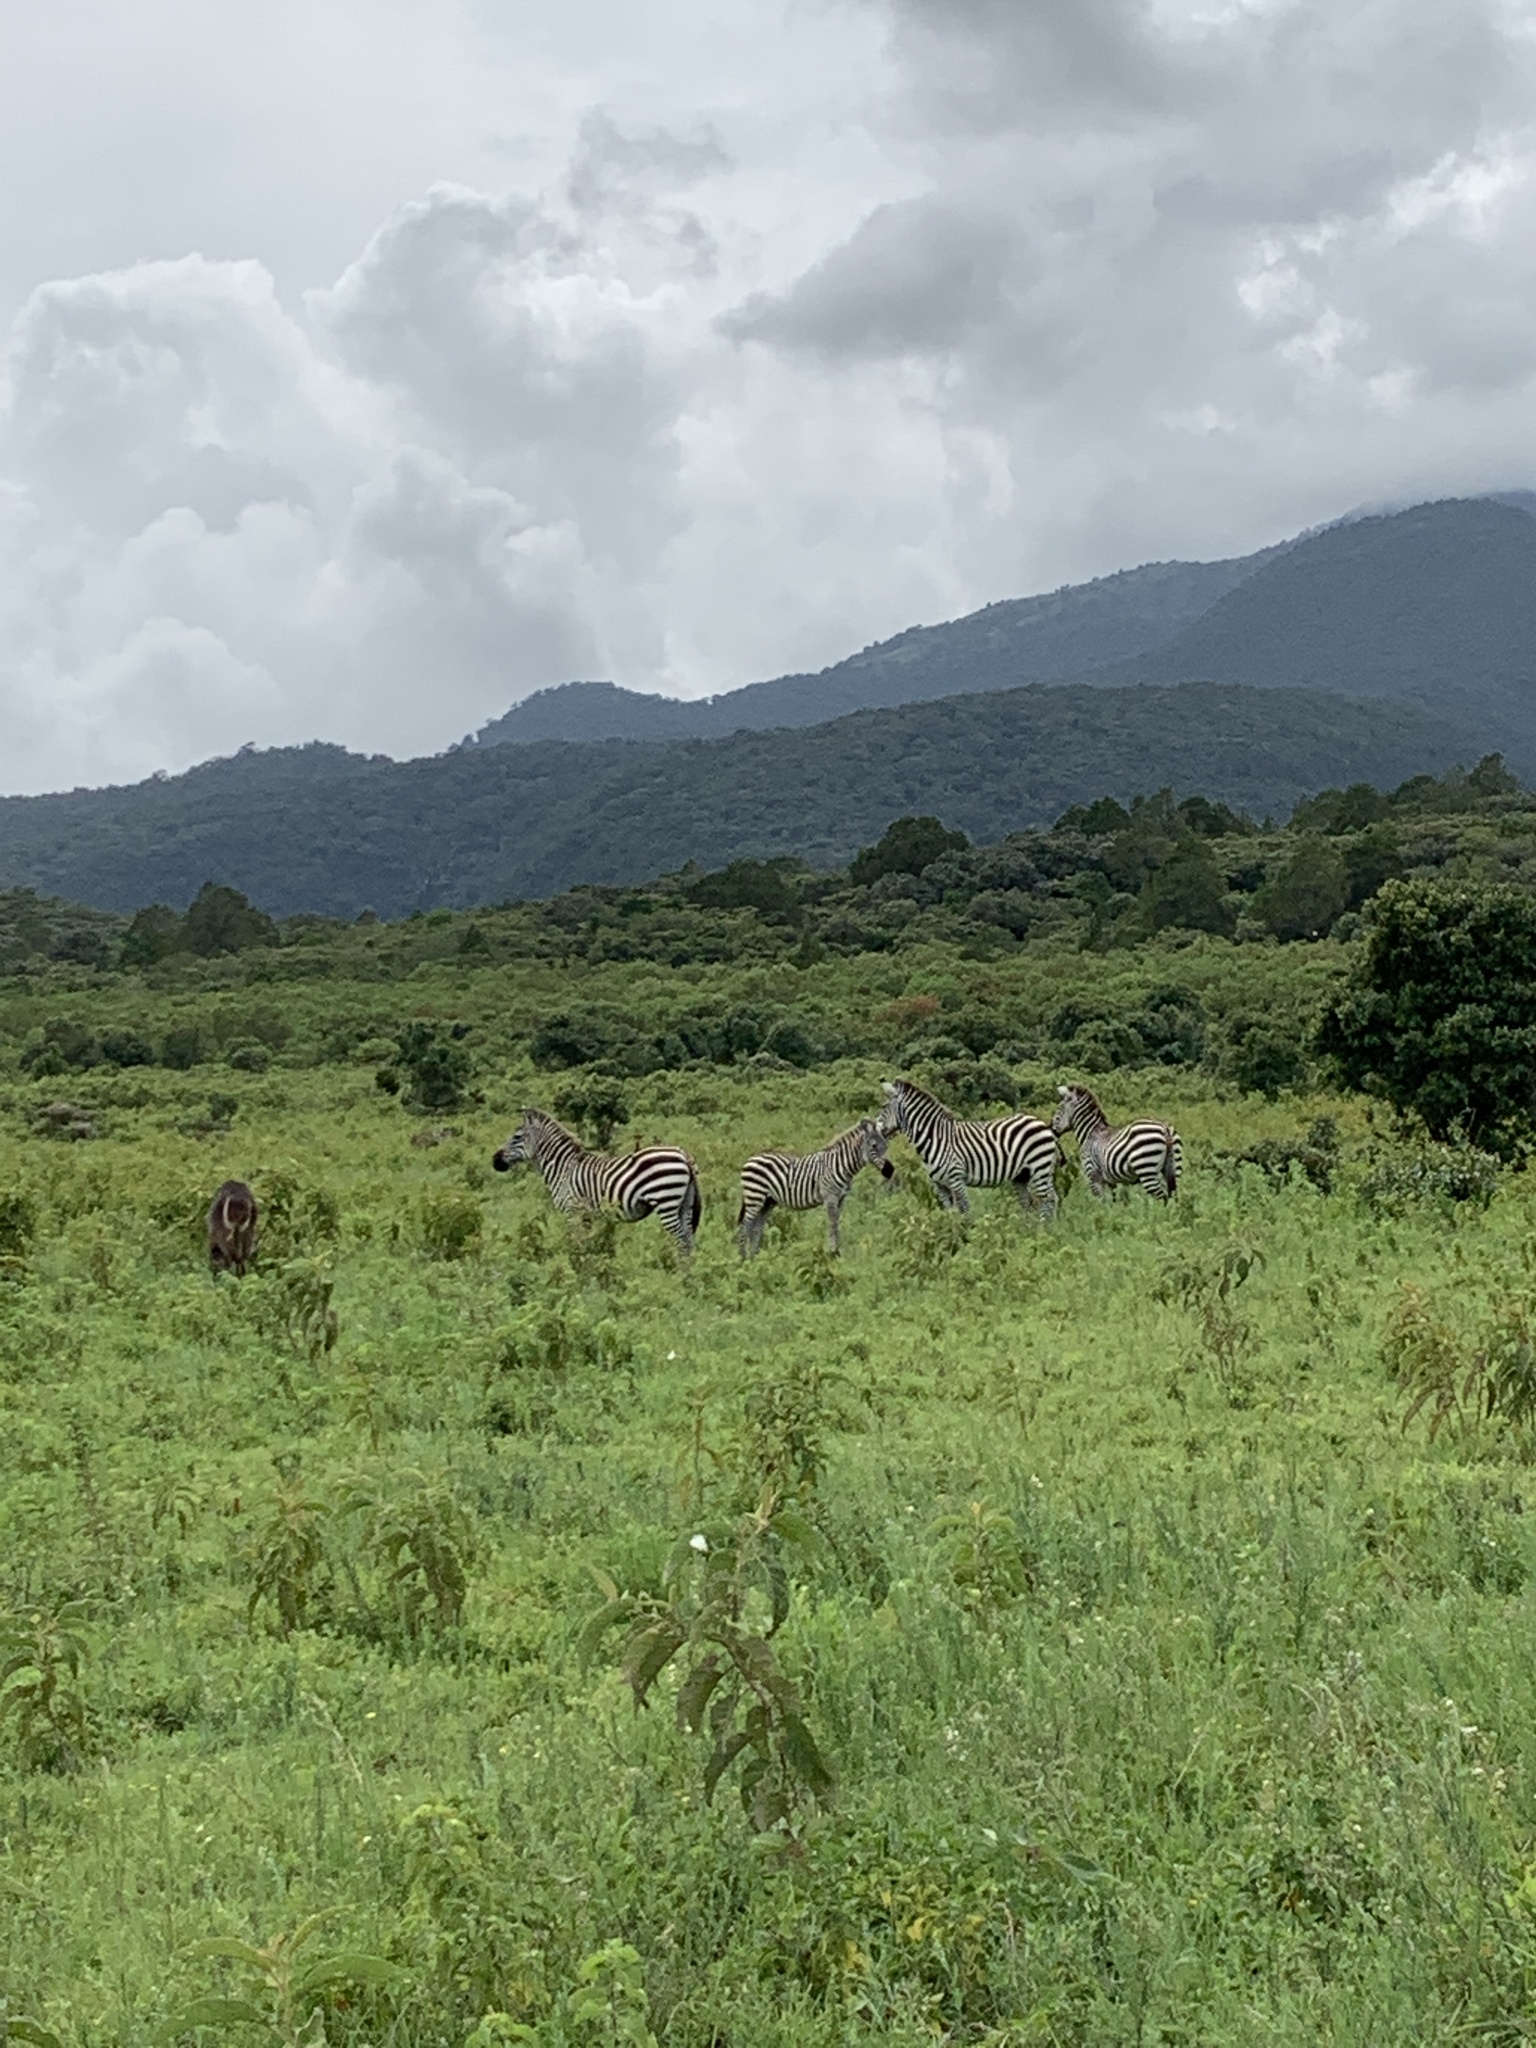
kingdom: Animalia
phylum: Chordata
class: Mammalia
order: Perissodactyla
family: Equidae
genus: Equus
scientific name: Equus quagga
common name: Plains zebra
